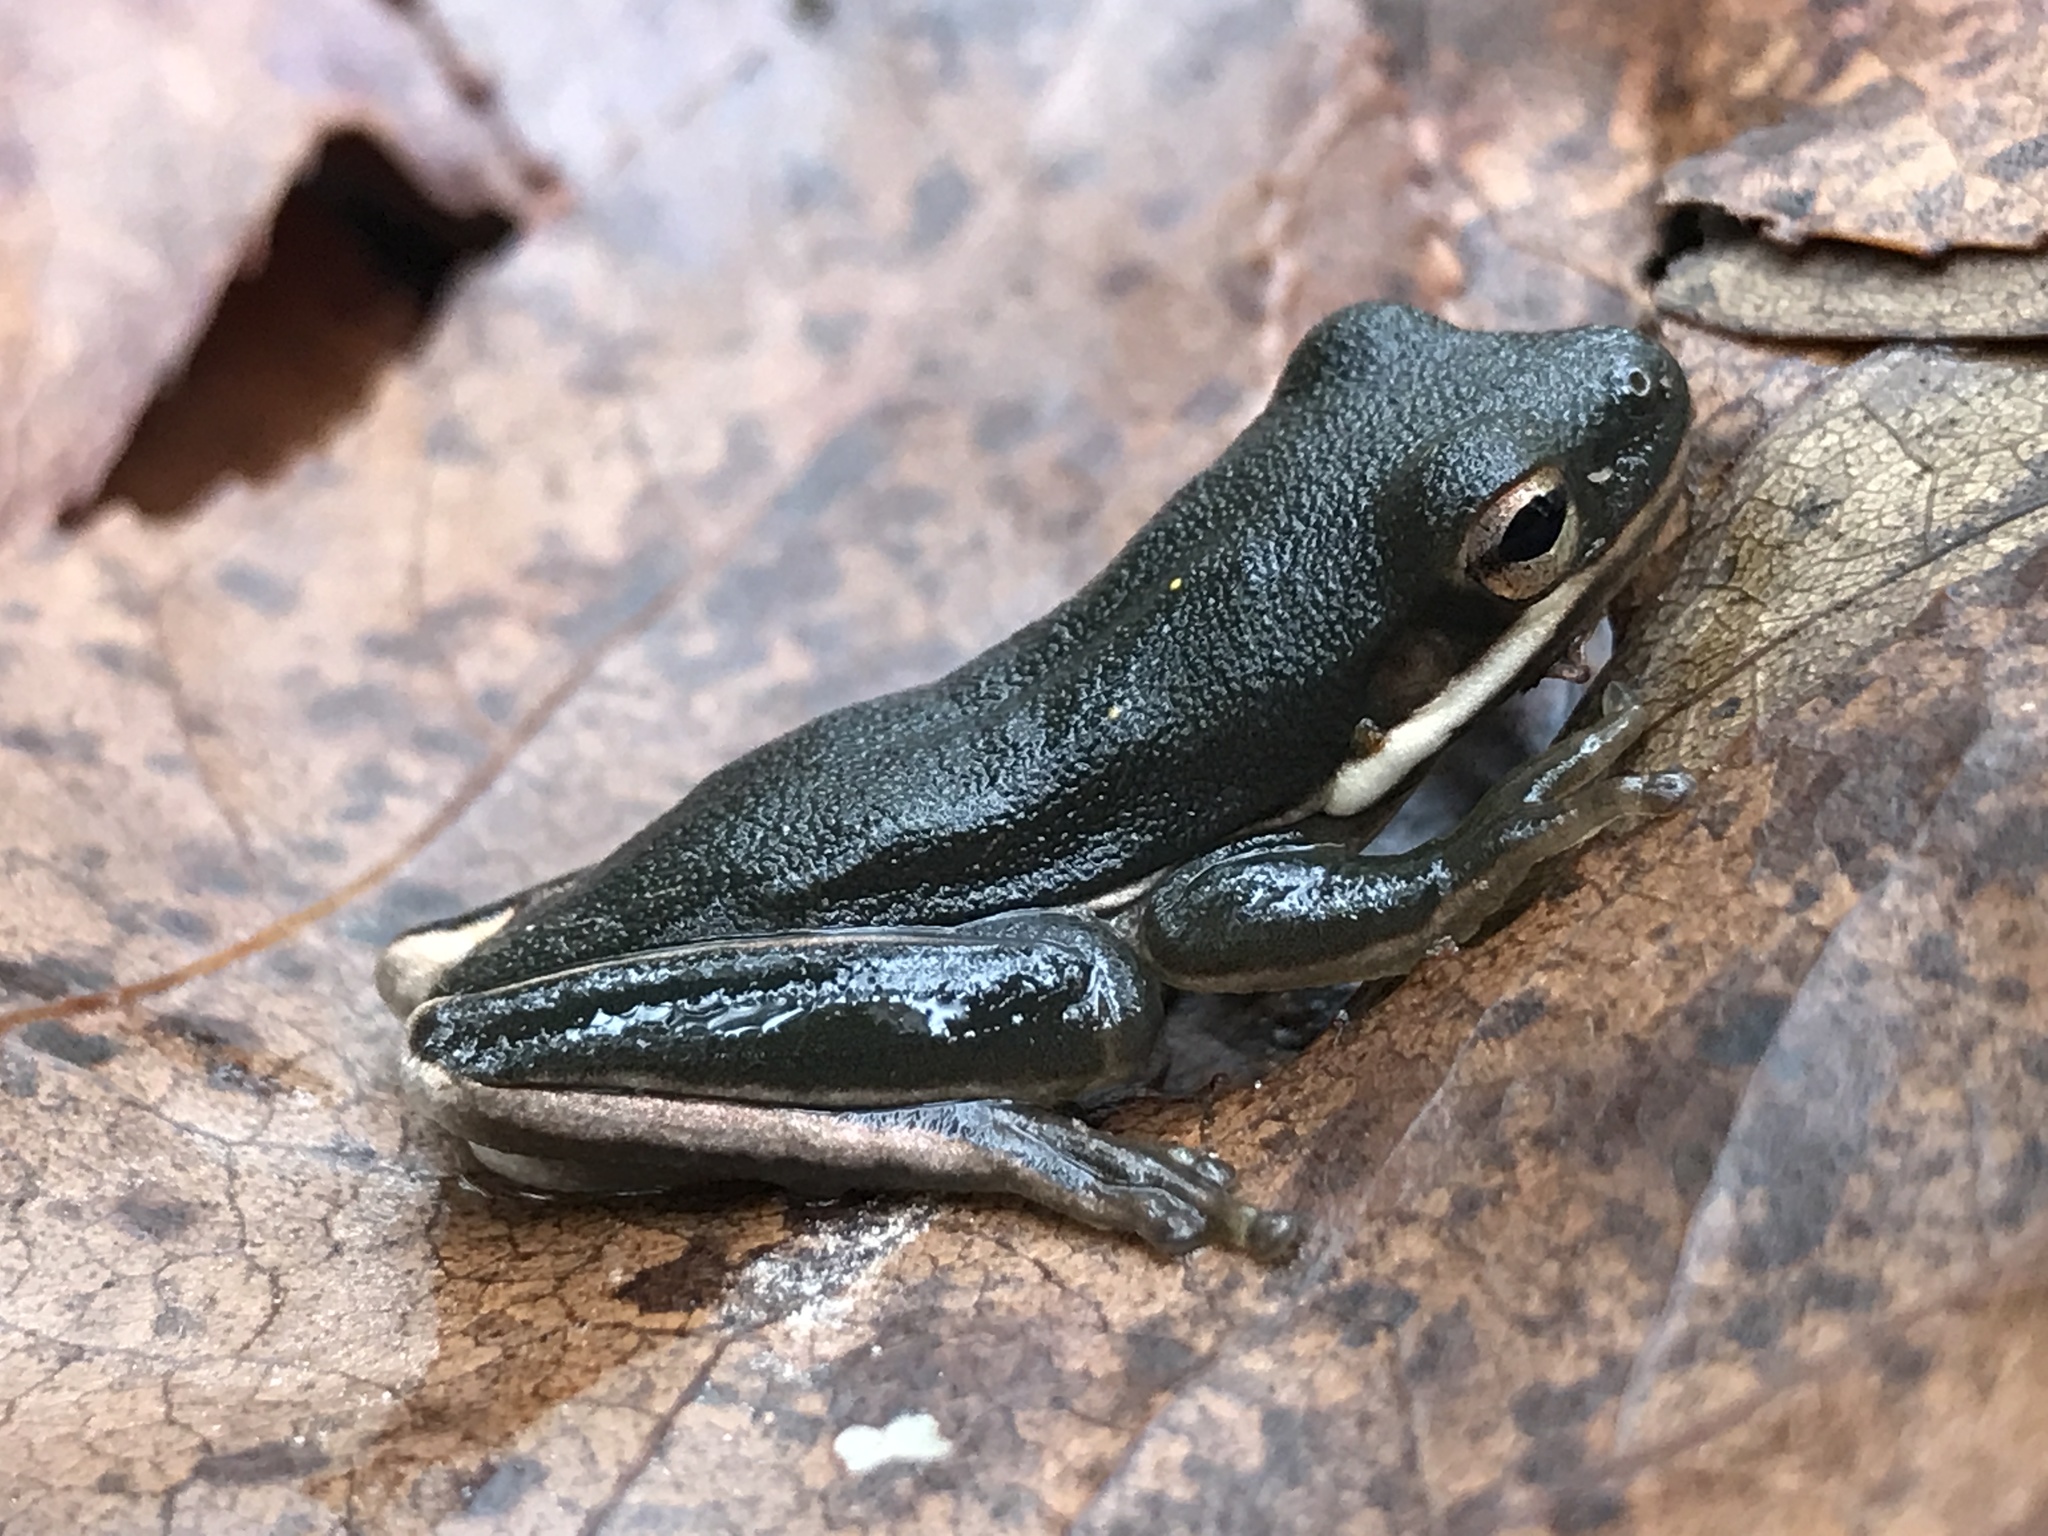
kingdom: Animalia
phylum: Chordata
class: Amphibia
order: Anura
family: Hylidae
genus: Dryophytes
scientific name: Dryophytes cinereus
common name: Green treefrog
